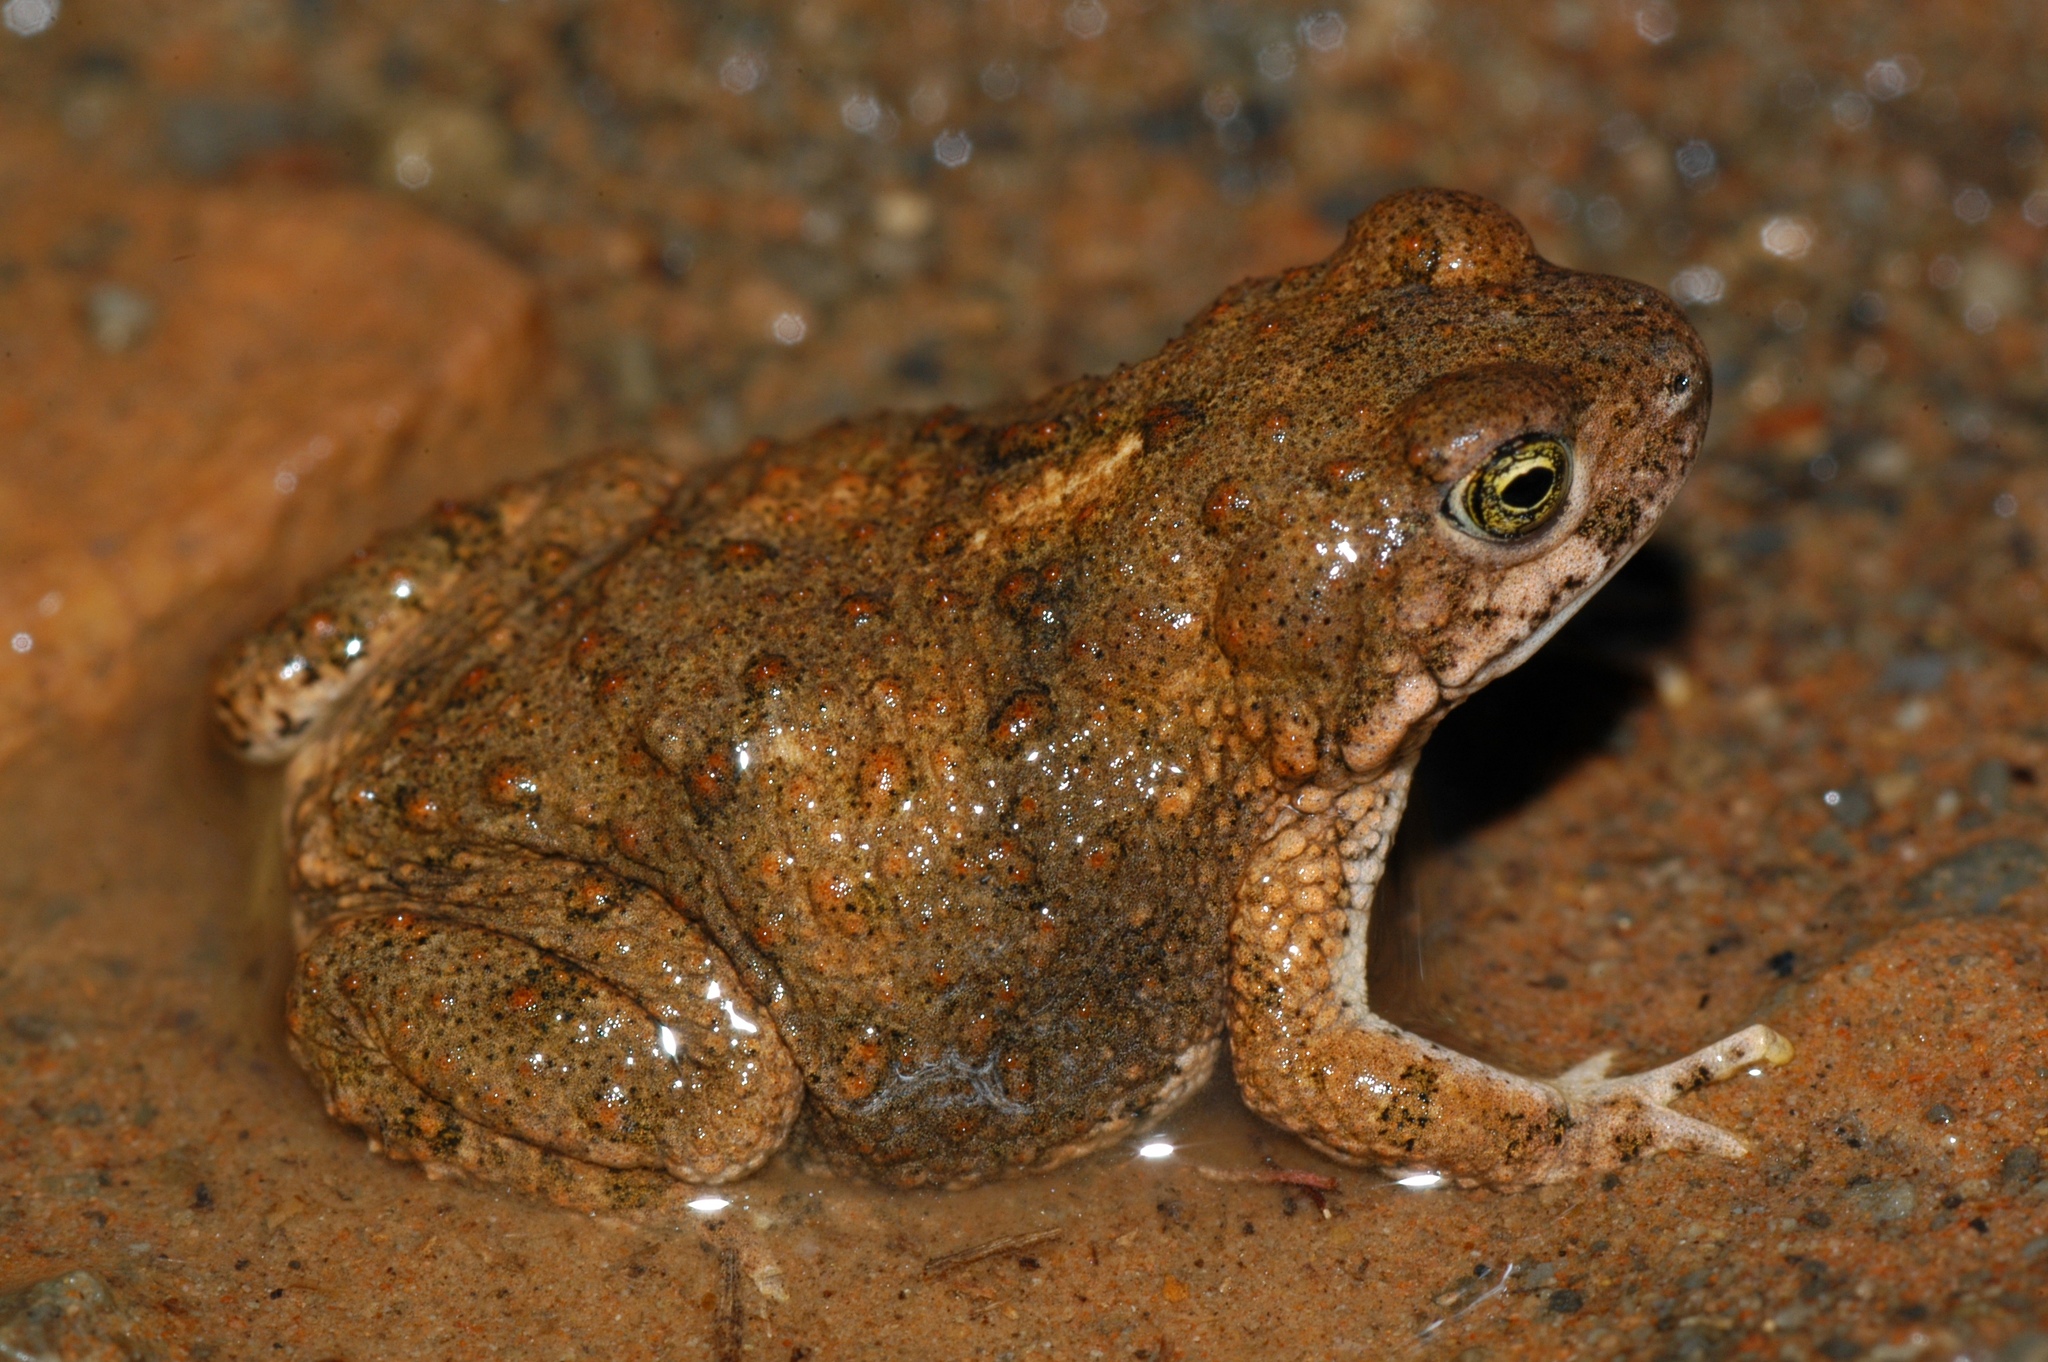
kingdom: Animalia
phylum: Chordata
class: Amphibia
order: Anura
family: Bufonidae
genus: Poyntonophrynus
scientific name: Poyntonophrynus vertebralis
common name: Southern pygmy toad
